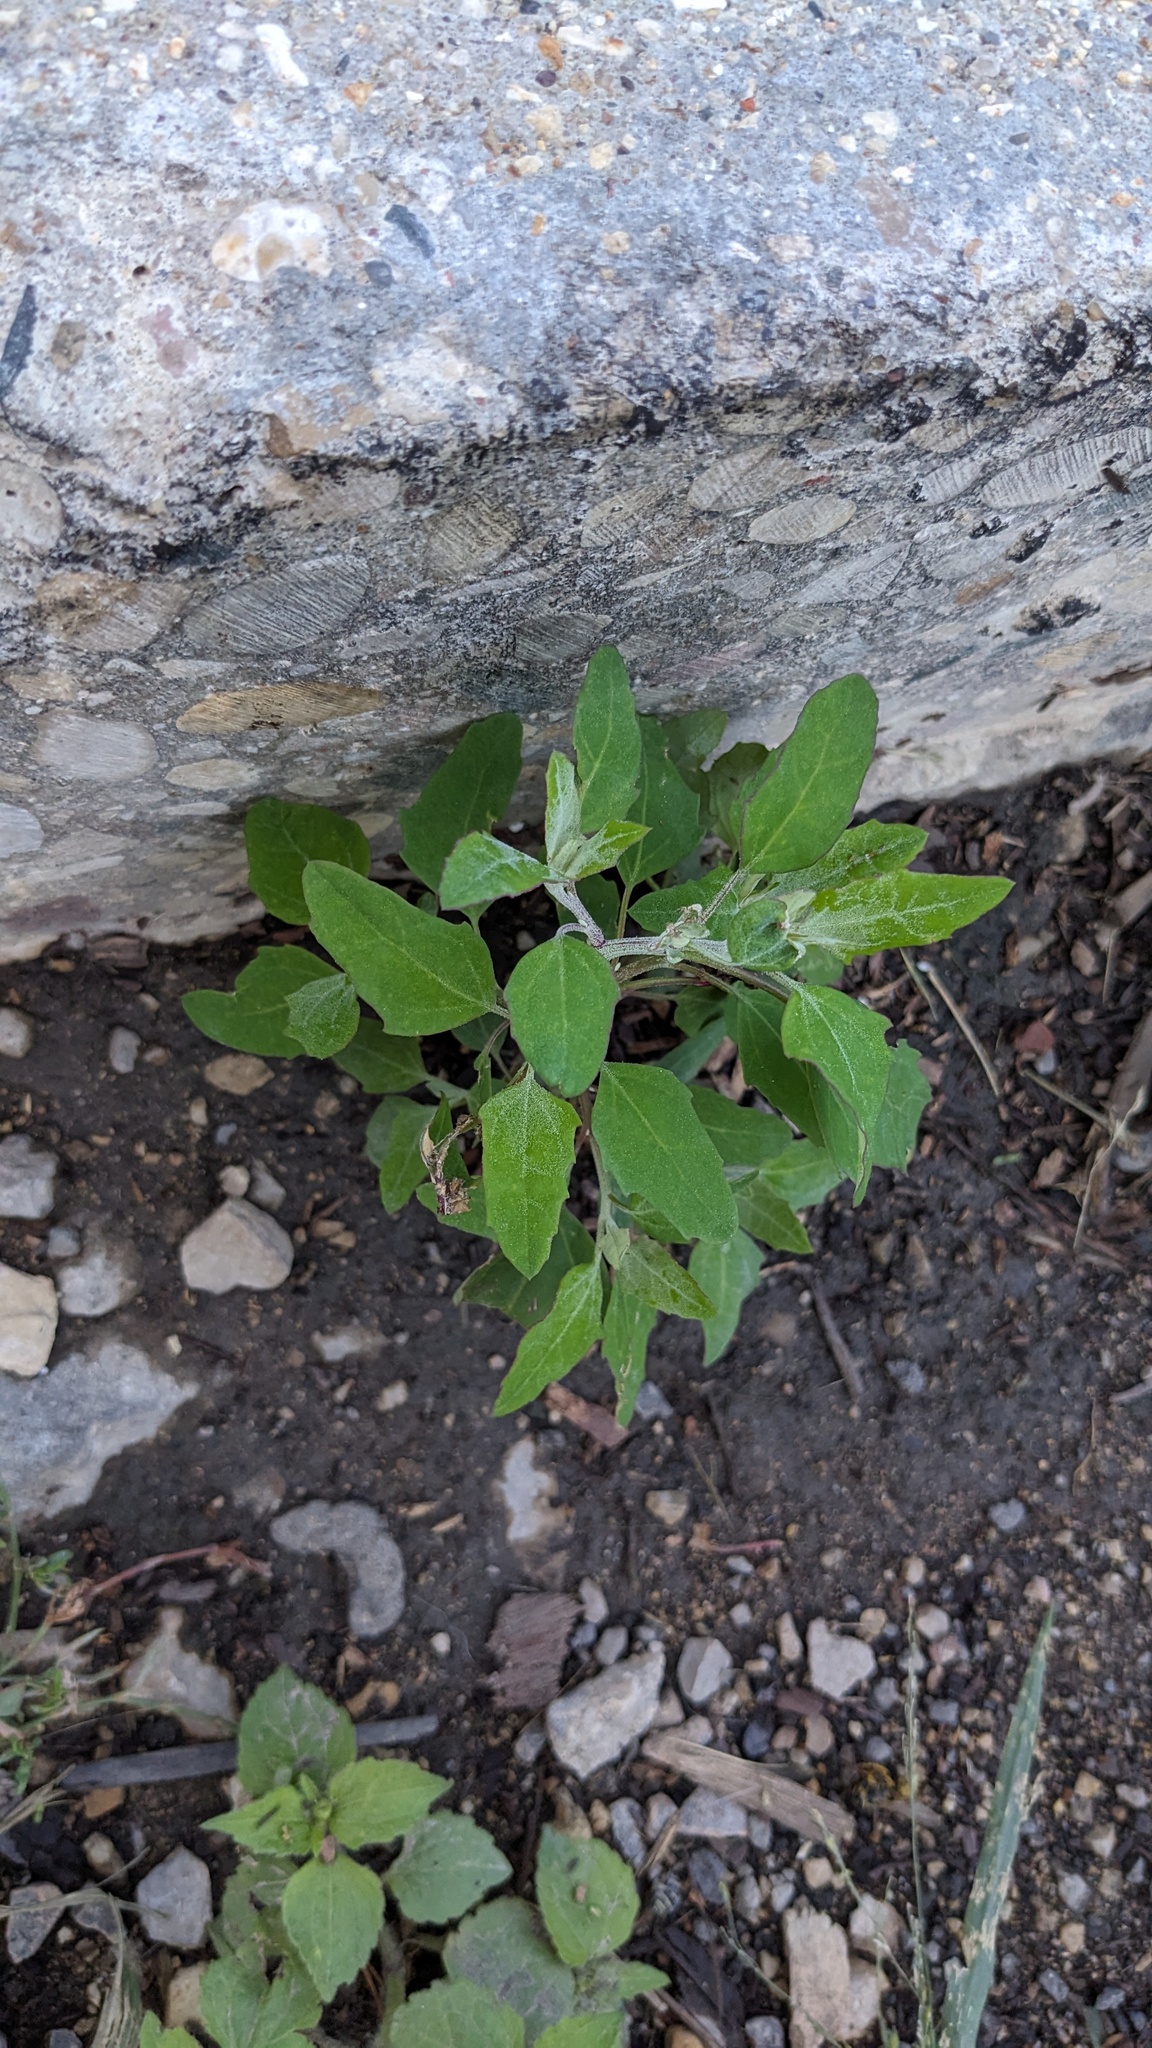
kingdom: Plantae
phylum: Tracheophyta
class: Magnoliopsida
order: Caryophyllales
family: Amaranthaceae
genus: Chenopodium
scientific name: Chenopodium album
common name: Fat-hen
